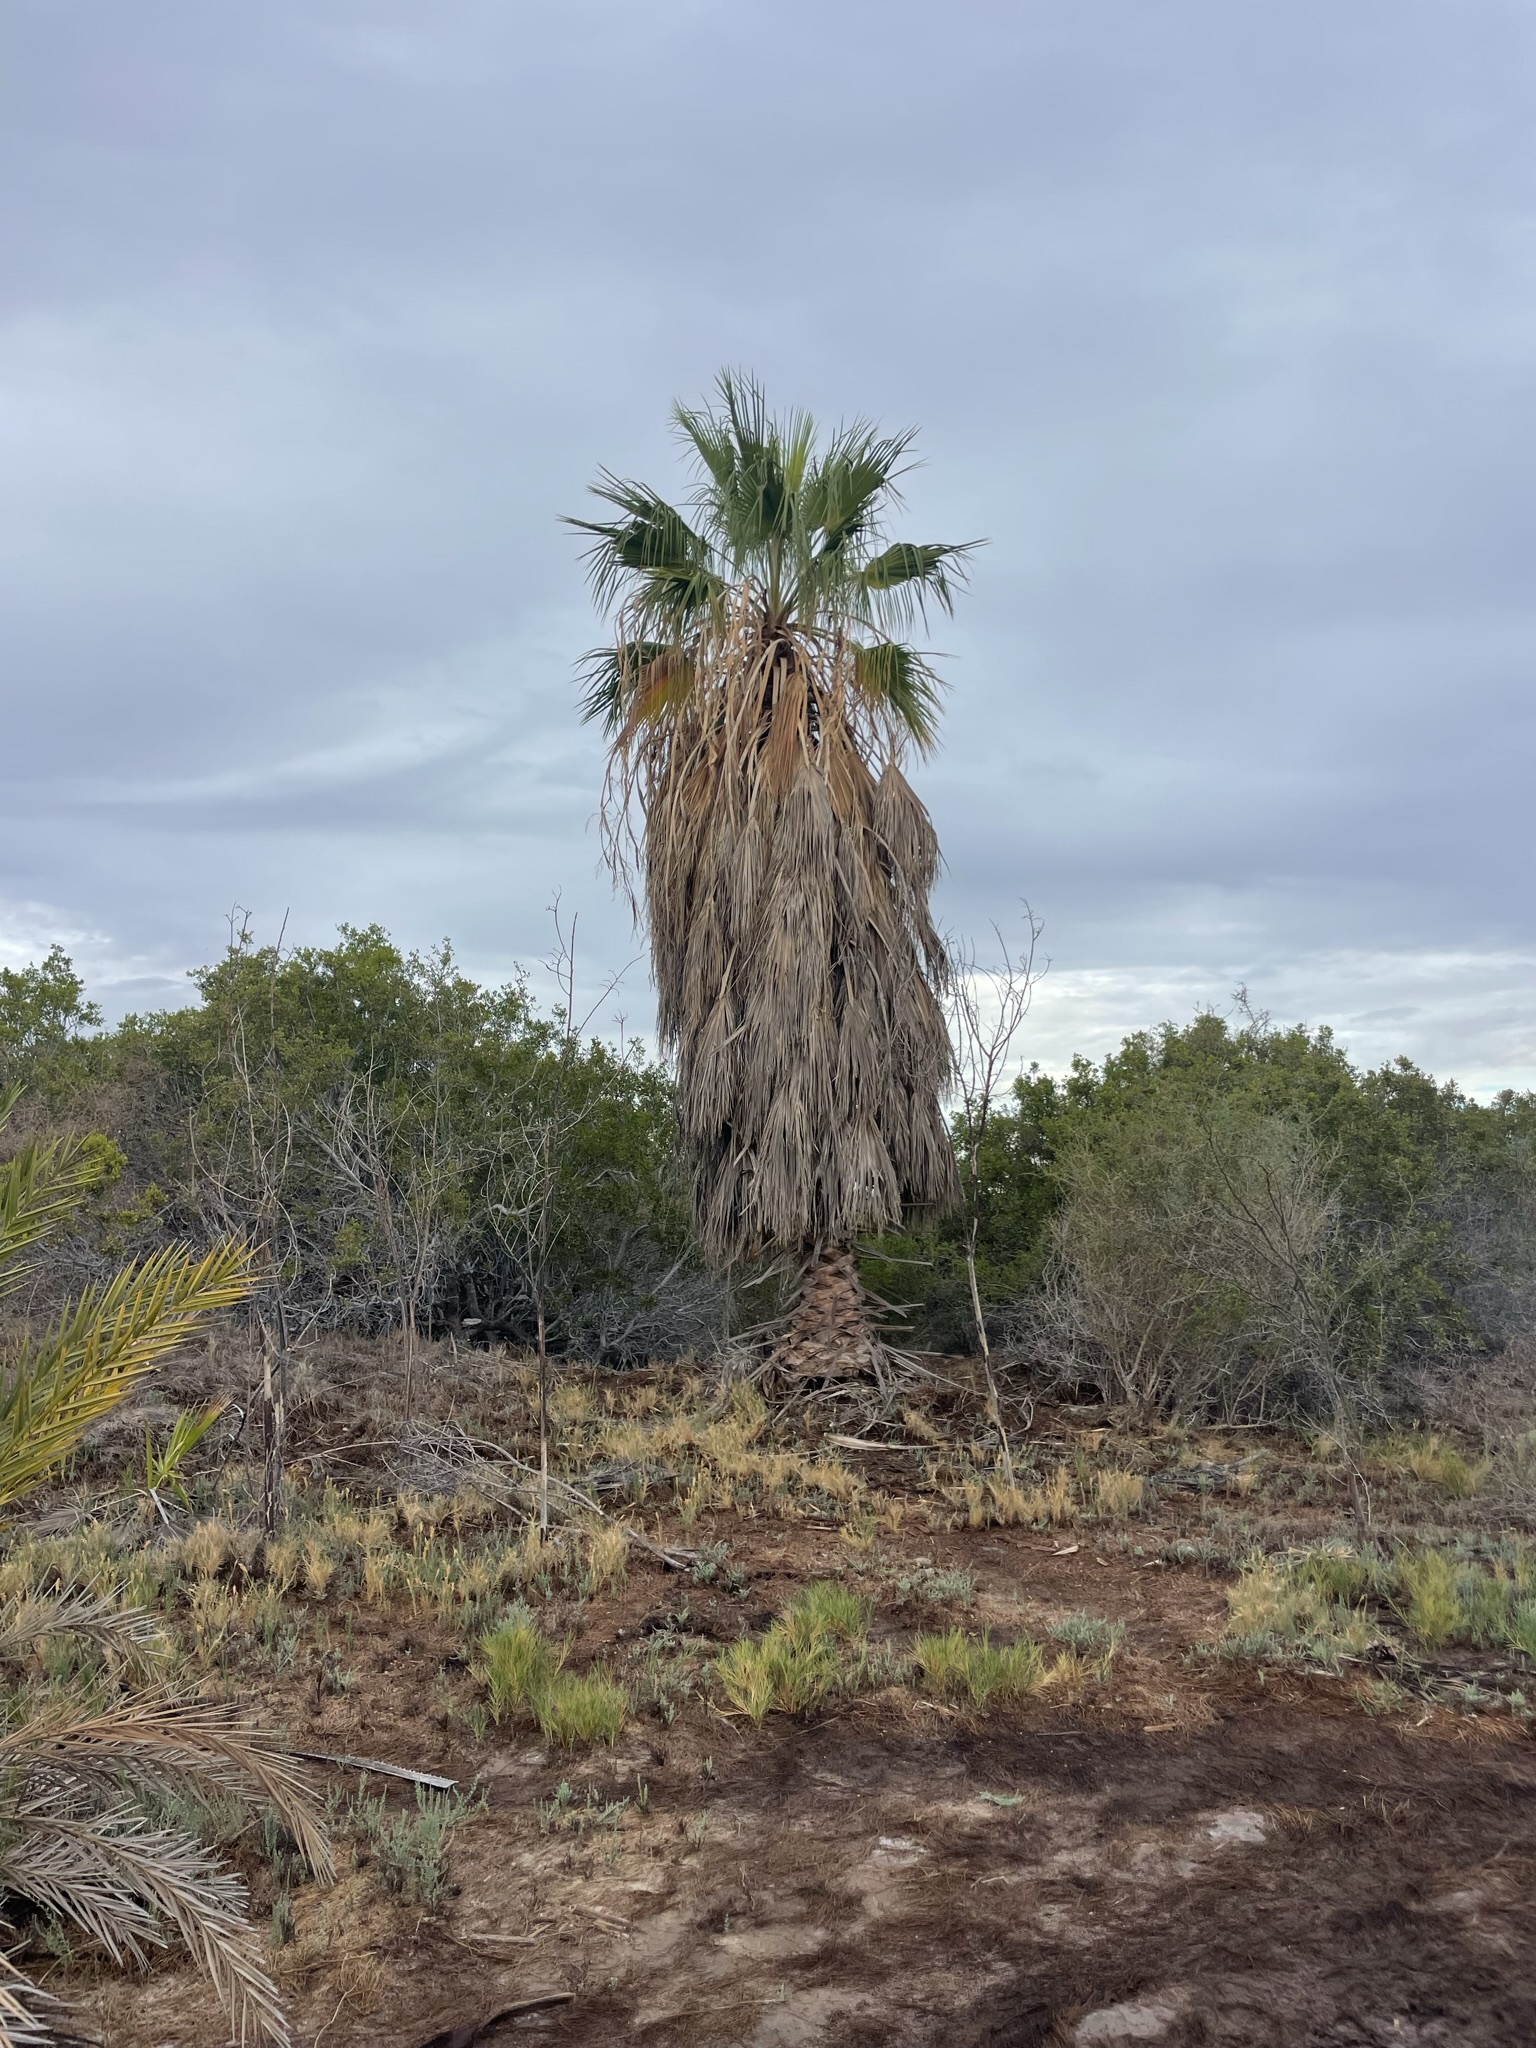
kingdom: Plantae
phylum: Tracheophyta
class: Liliopsida
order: Arecales
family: Arecaceae
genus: Washingtonia
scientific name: Washingtonia robusta
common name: Mexican fan palm
